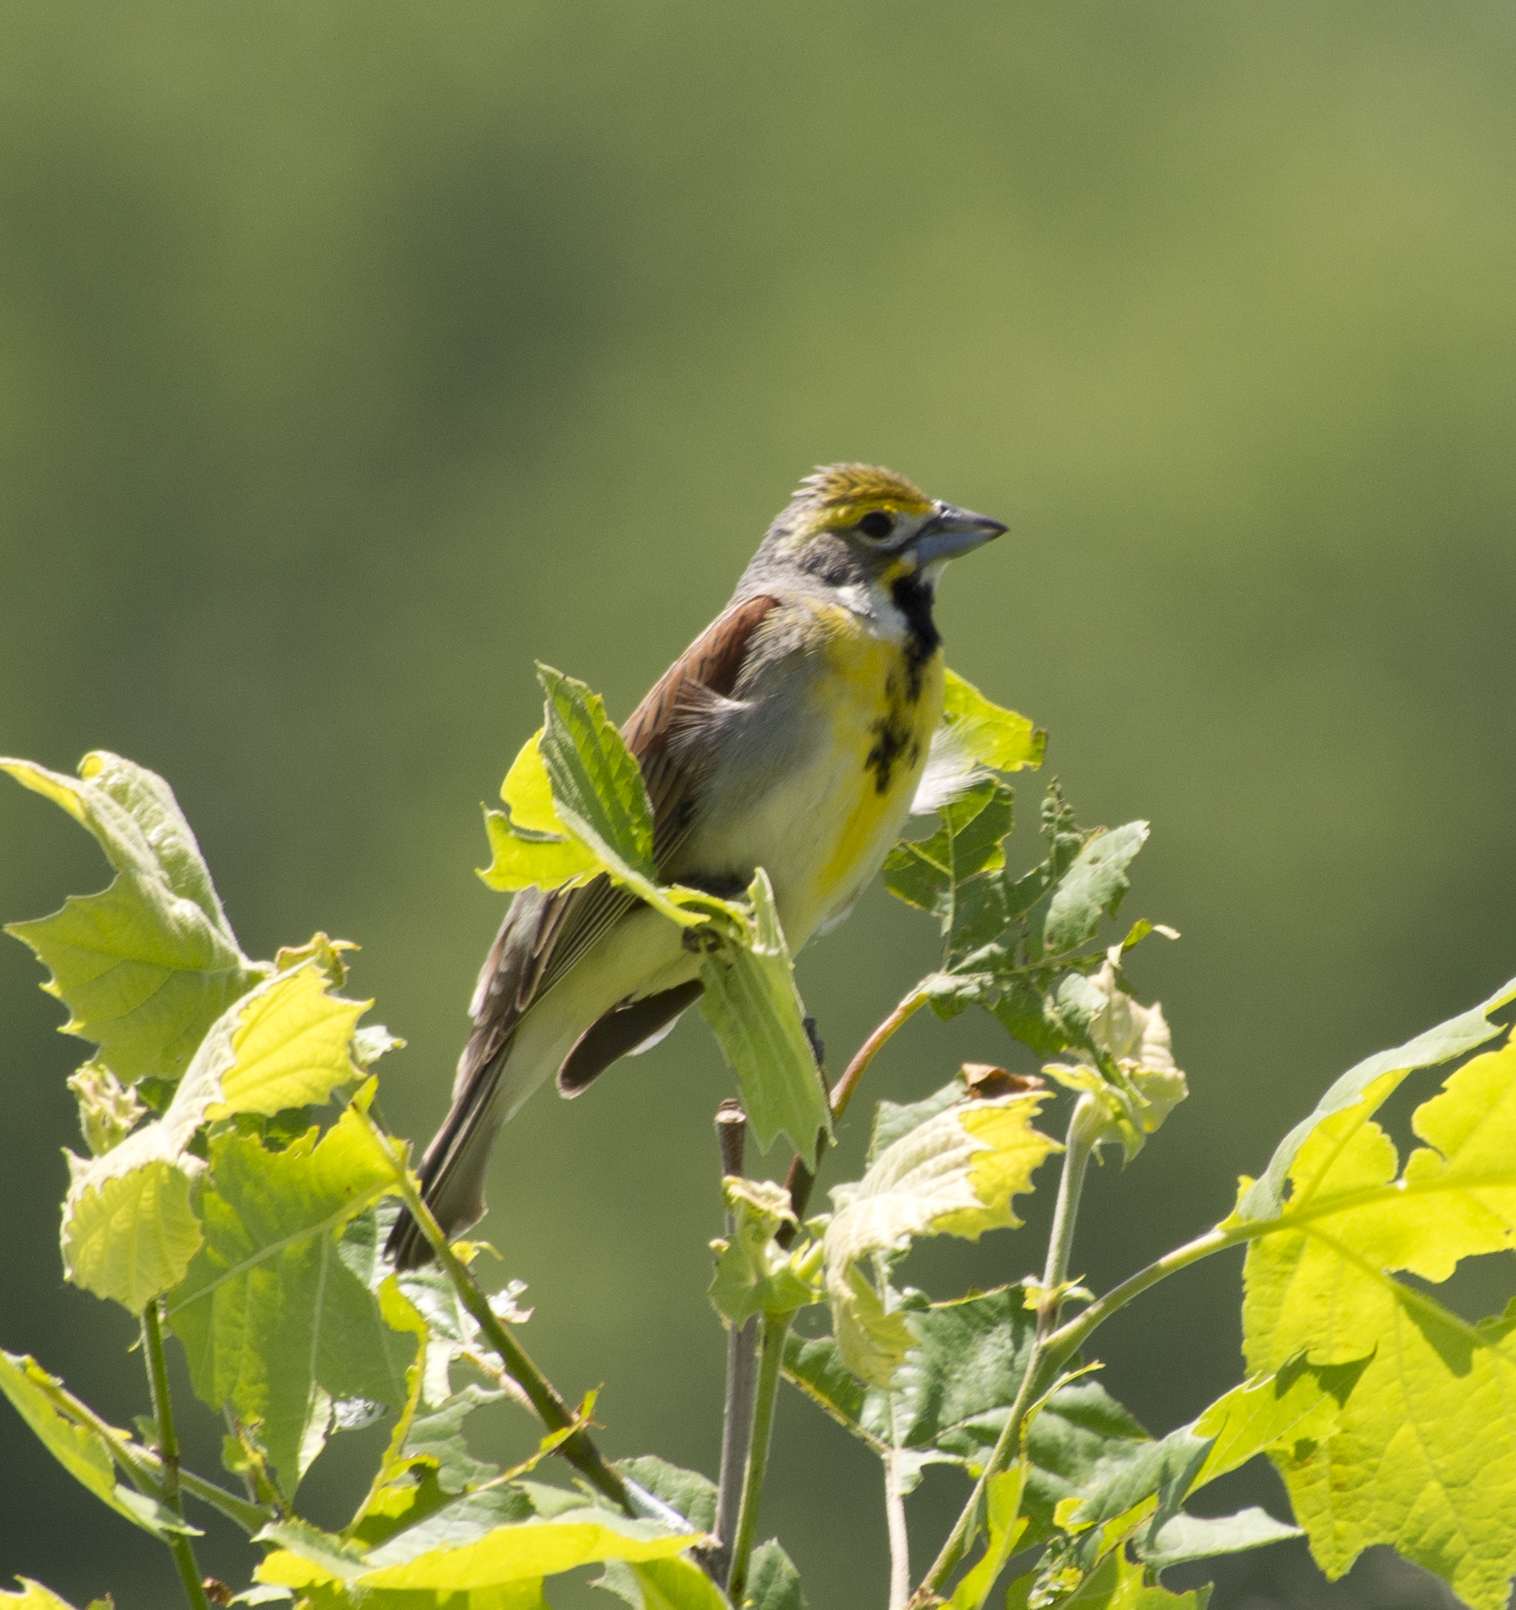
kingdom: Animalia
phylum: Chordata
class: Aves
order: Passeriformes
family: Cardinalidae
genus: Spiza
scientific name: Spiza americana
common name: Dickcissel
